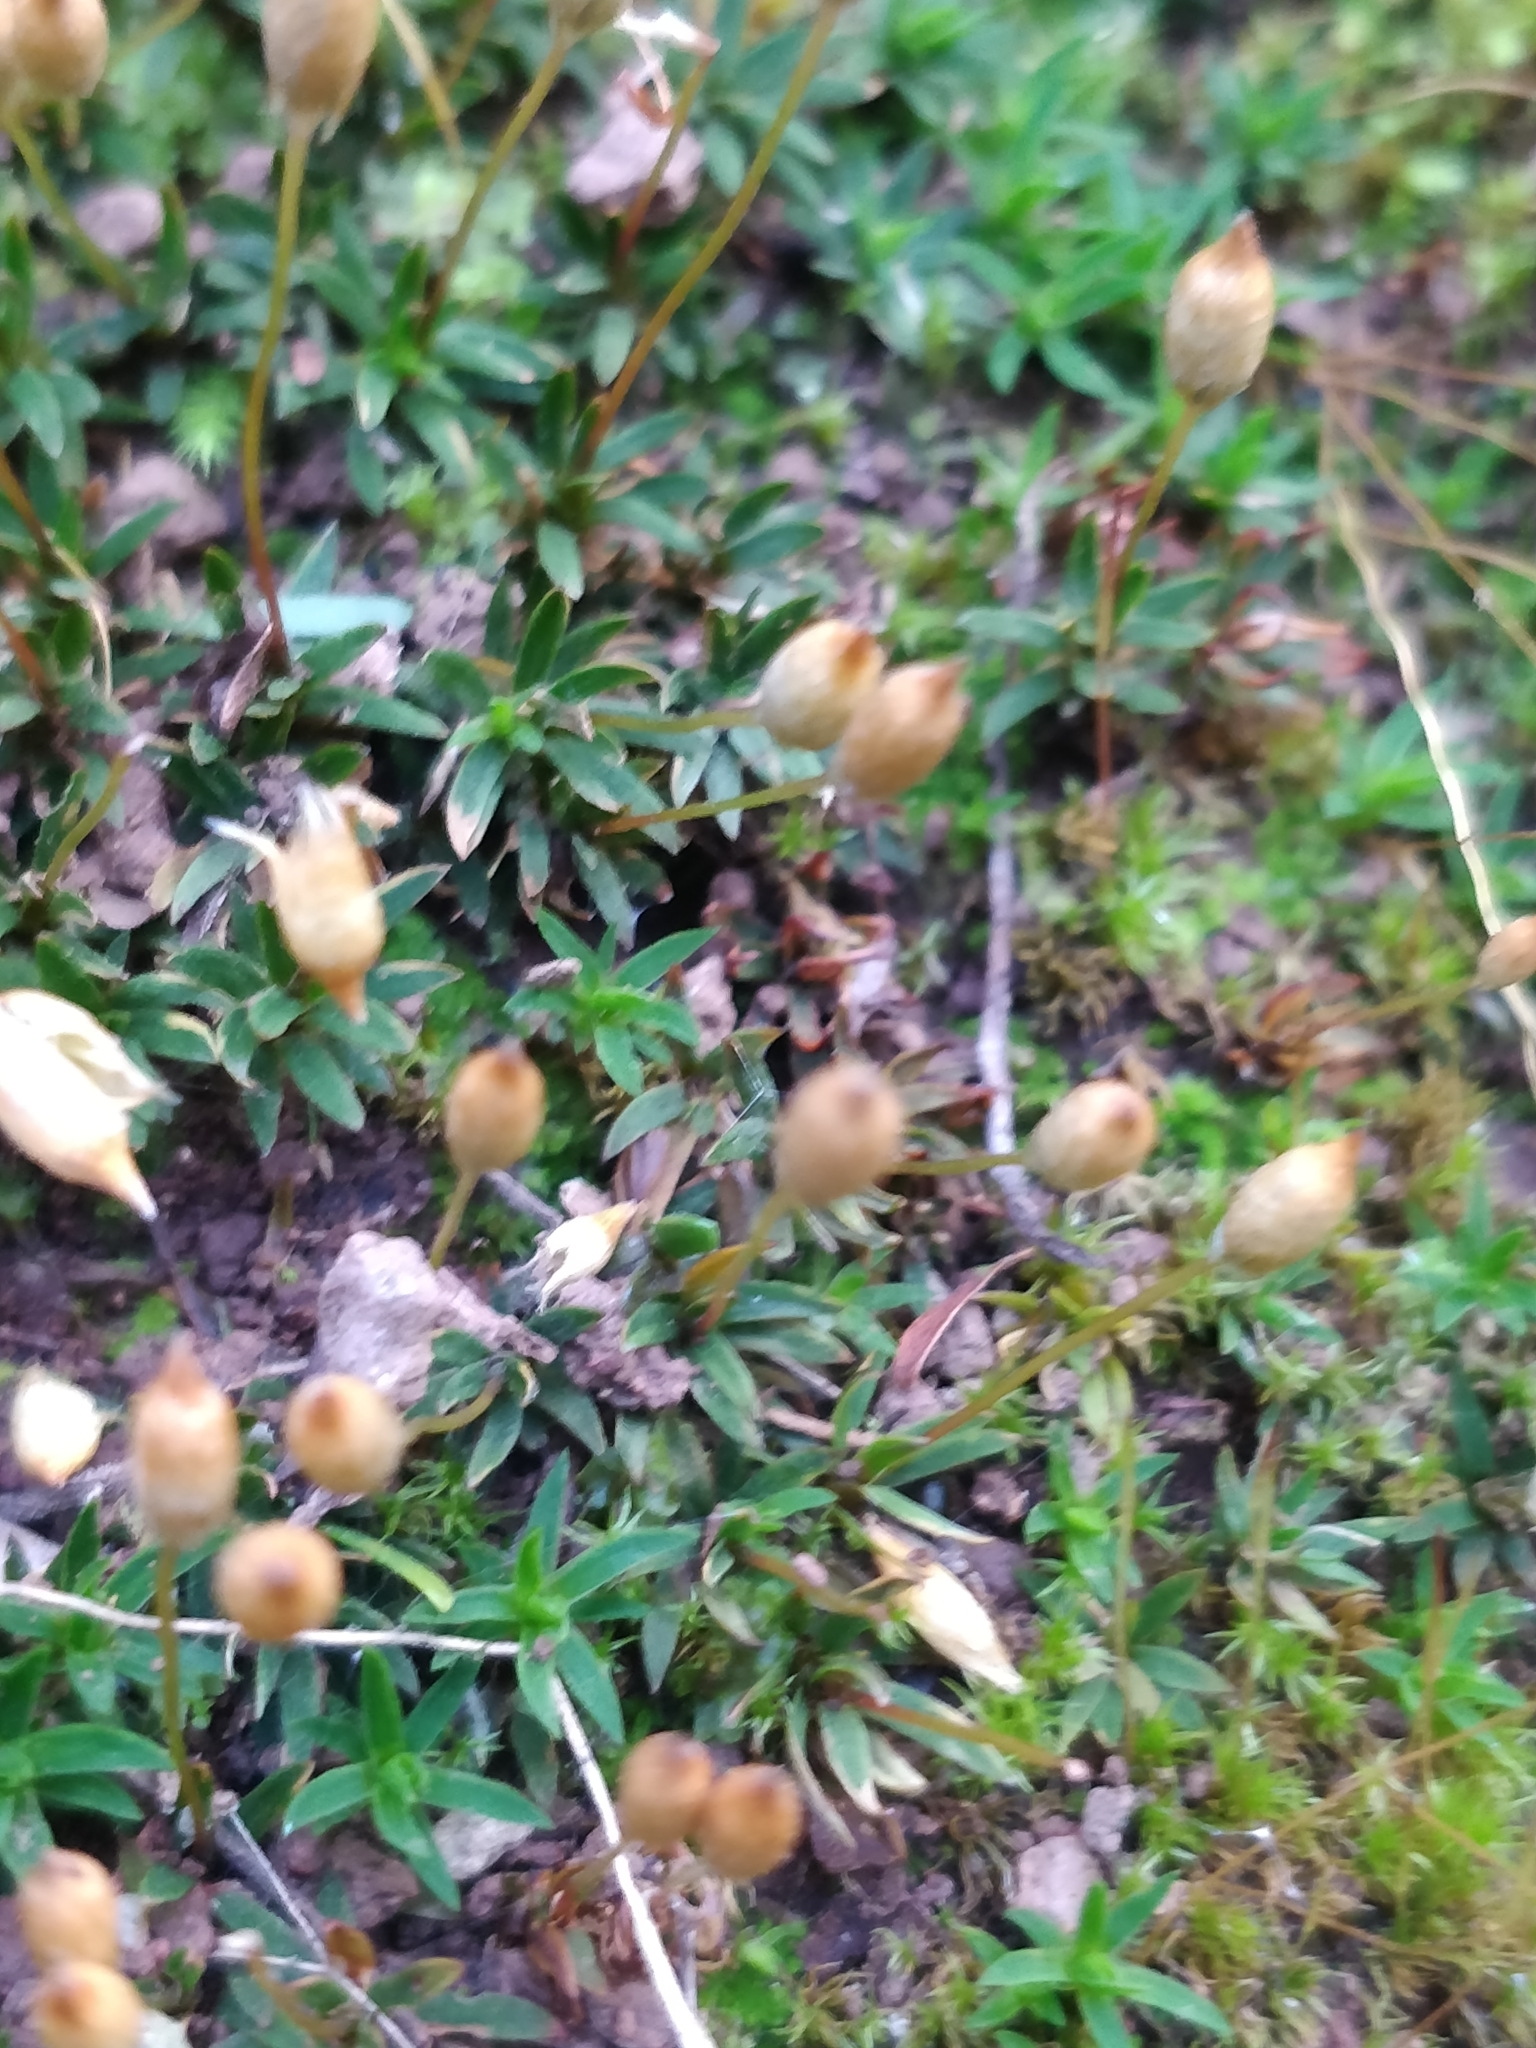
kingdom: Plantae
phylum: Bryophyta
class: Polytrichopsida
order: Polytrichales
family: Polytrichaceae
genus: Pogonatum
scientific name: Pogonatum aloides
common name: Aloe haircap
